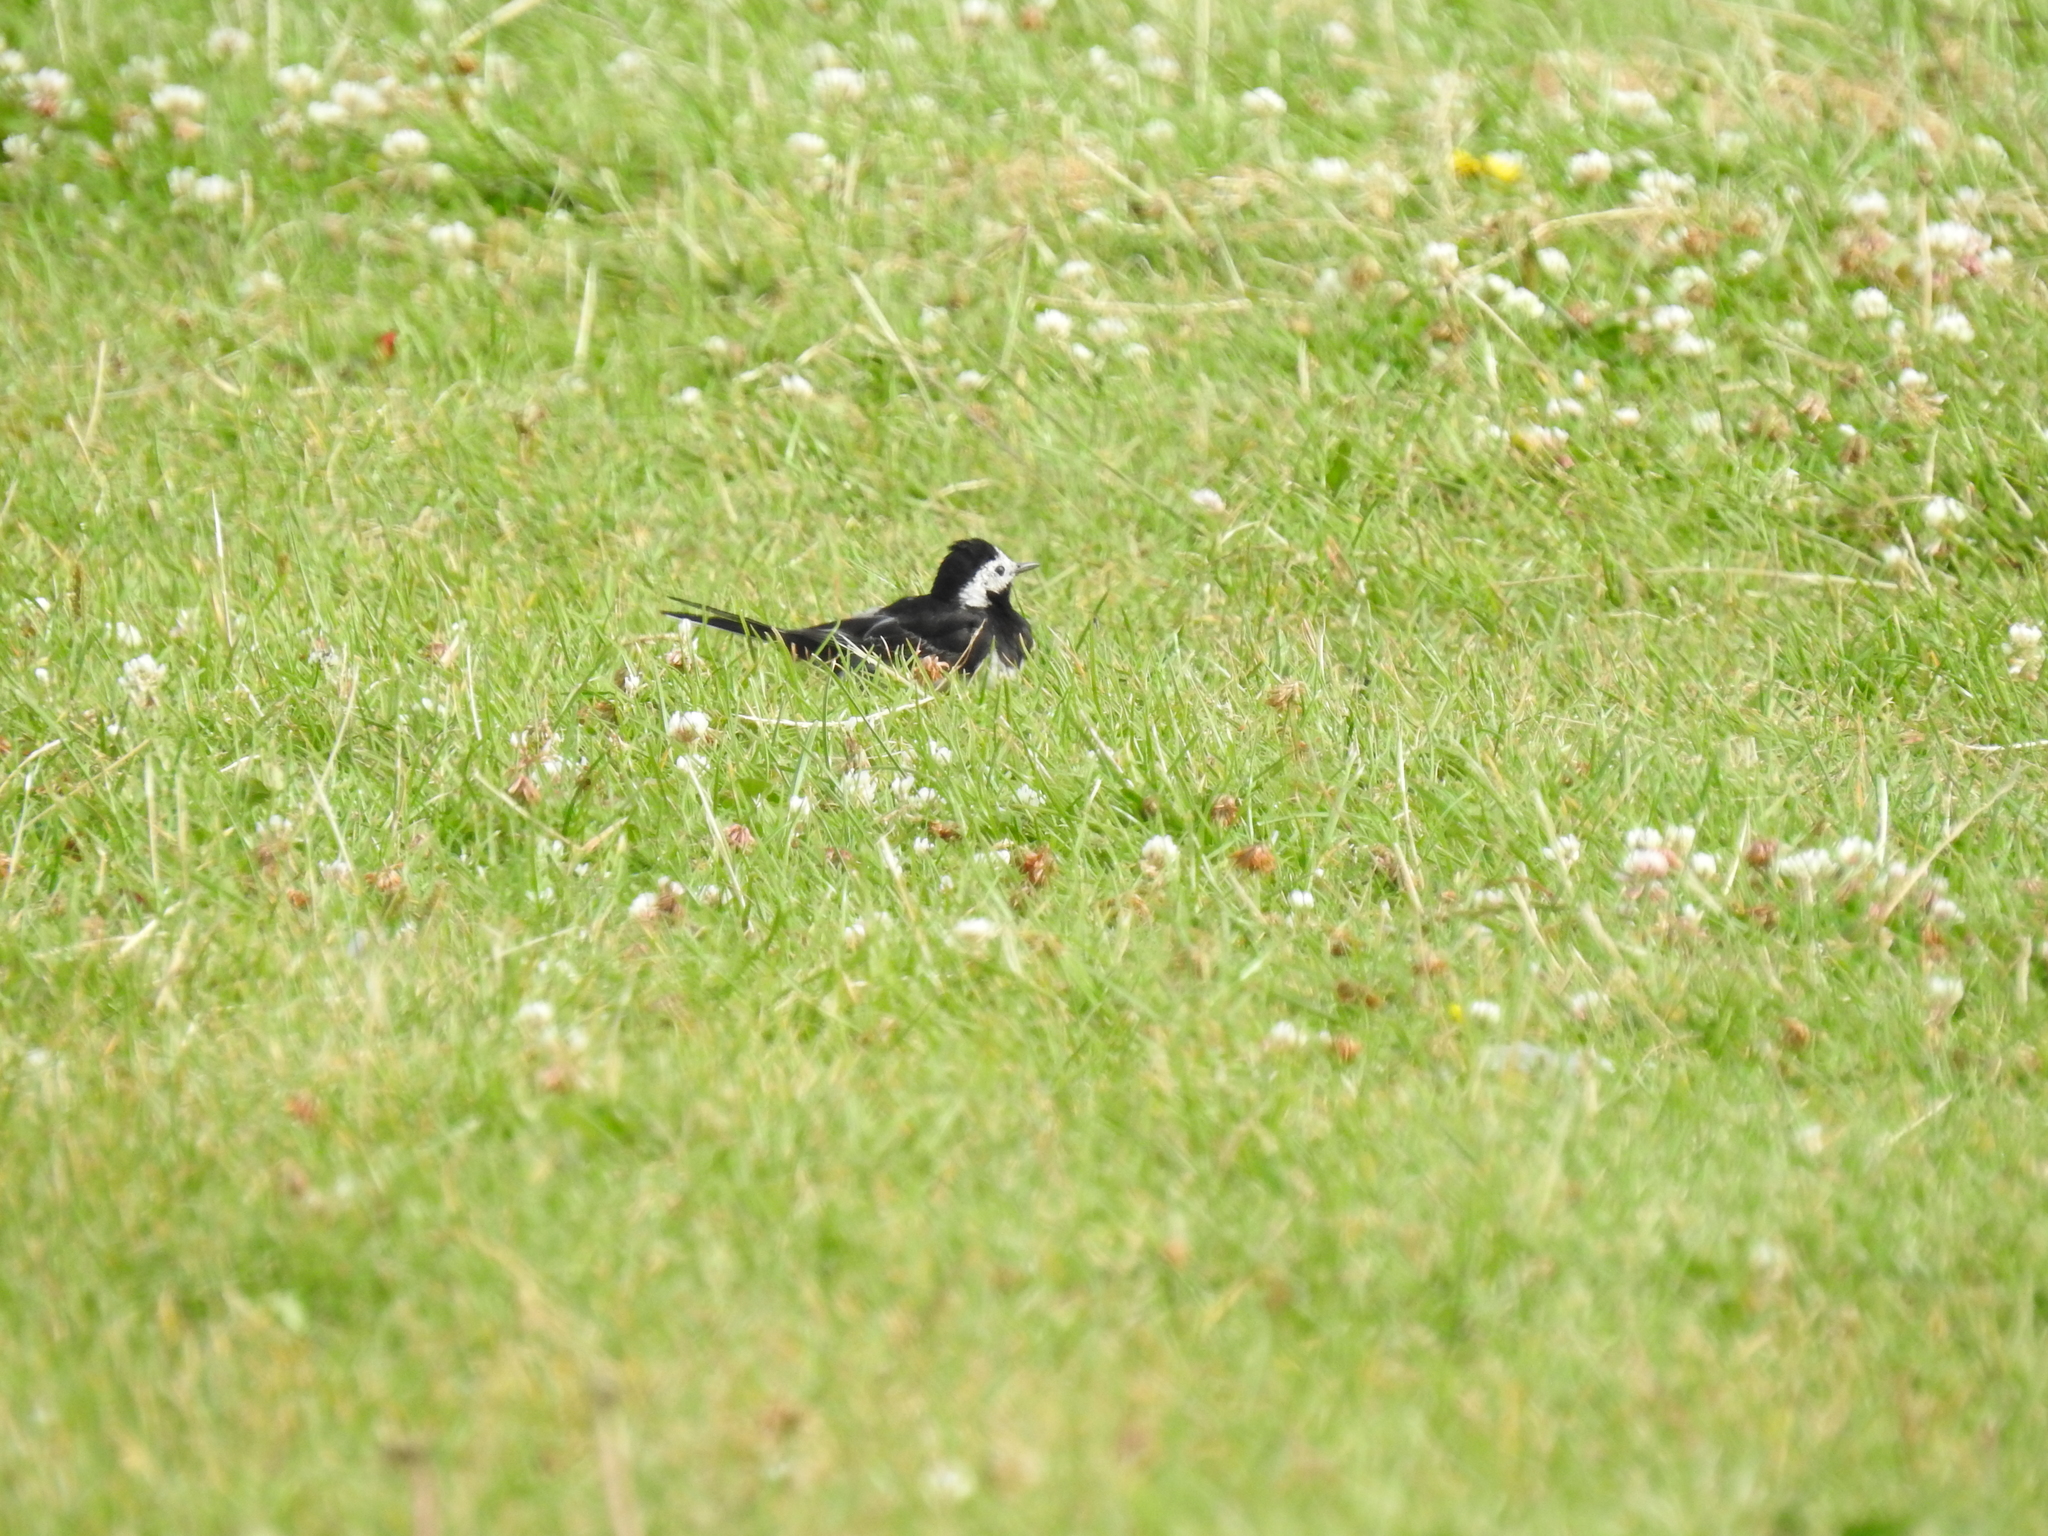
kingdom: Animalia
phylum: Chordata
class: Aves
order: Passeriformes
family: Motacillidae
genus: Motacilla
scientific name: Motacilla alba
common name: White wagtail
